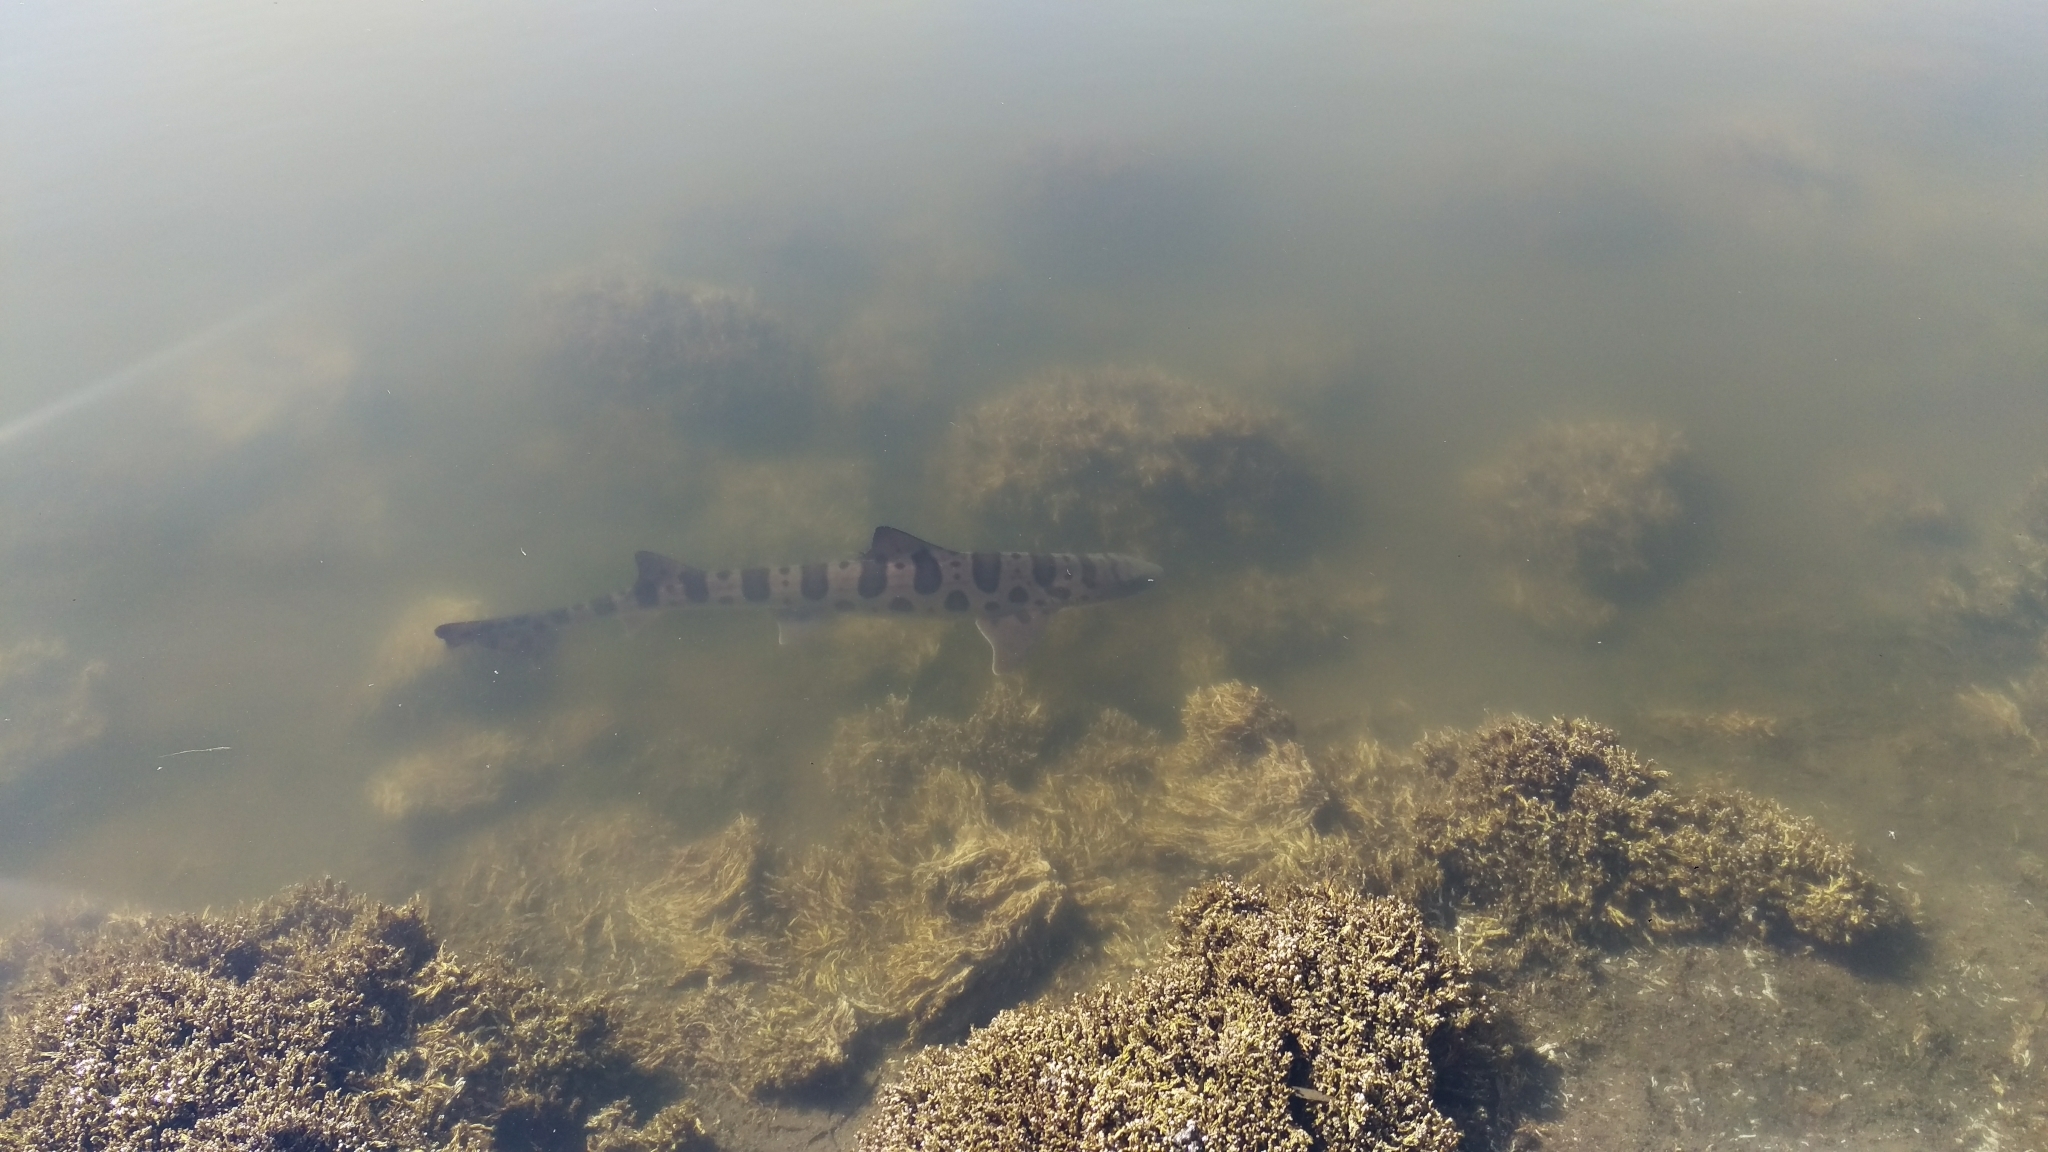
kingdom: Animalia
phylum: Chordata
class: Elasmobranchii
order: Carcharhiniformes
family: Triakidae
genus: Triakis
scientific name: Triakis semifasciata
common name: Leopard shark
